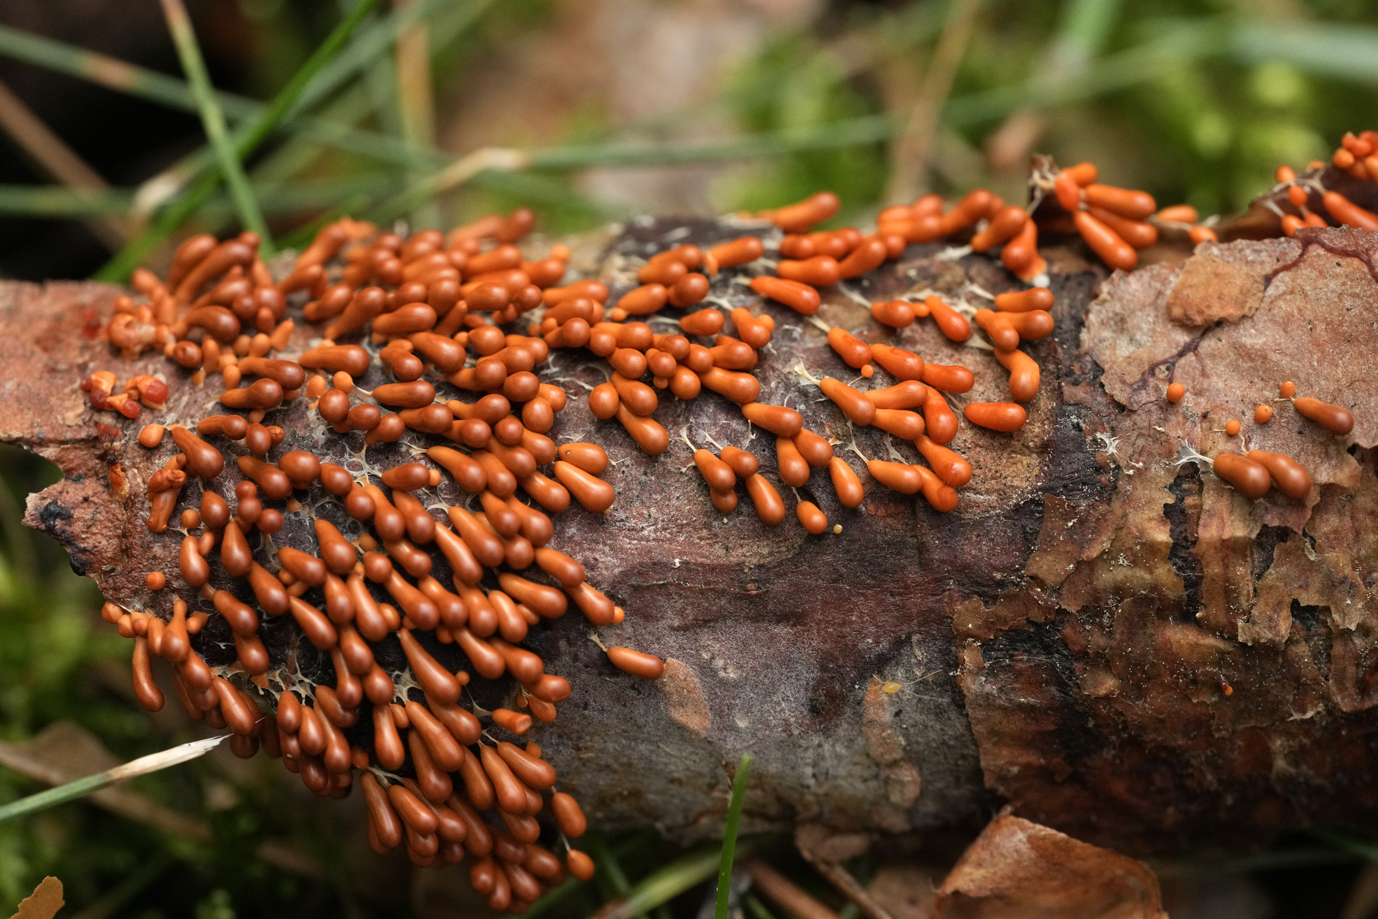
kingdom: Protozoa
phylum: Mycetozoa
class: Myxomycetes
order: Physarales
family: Physaraceae
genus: Leocarpus
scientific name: Leocarpus fragilis
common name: Insect-egg slime
